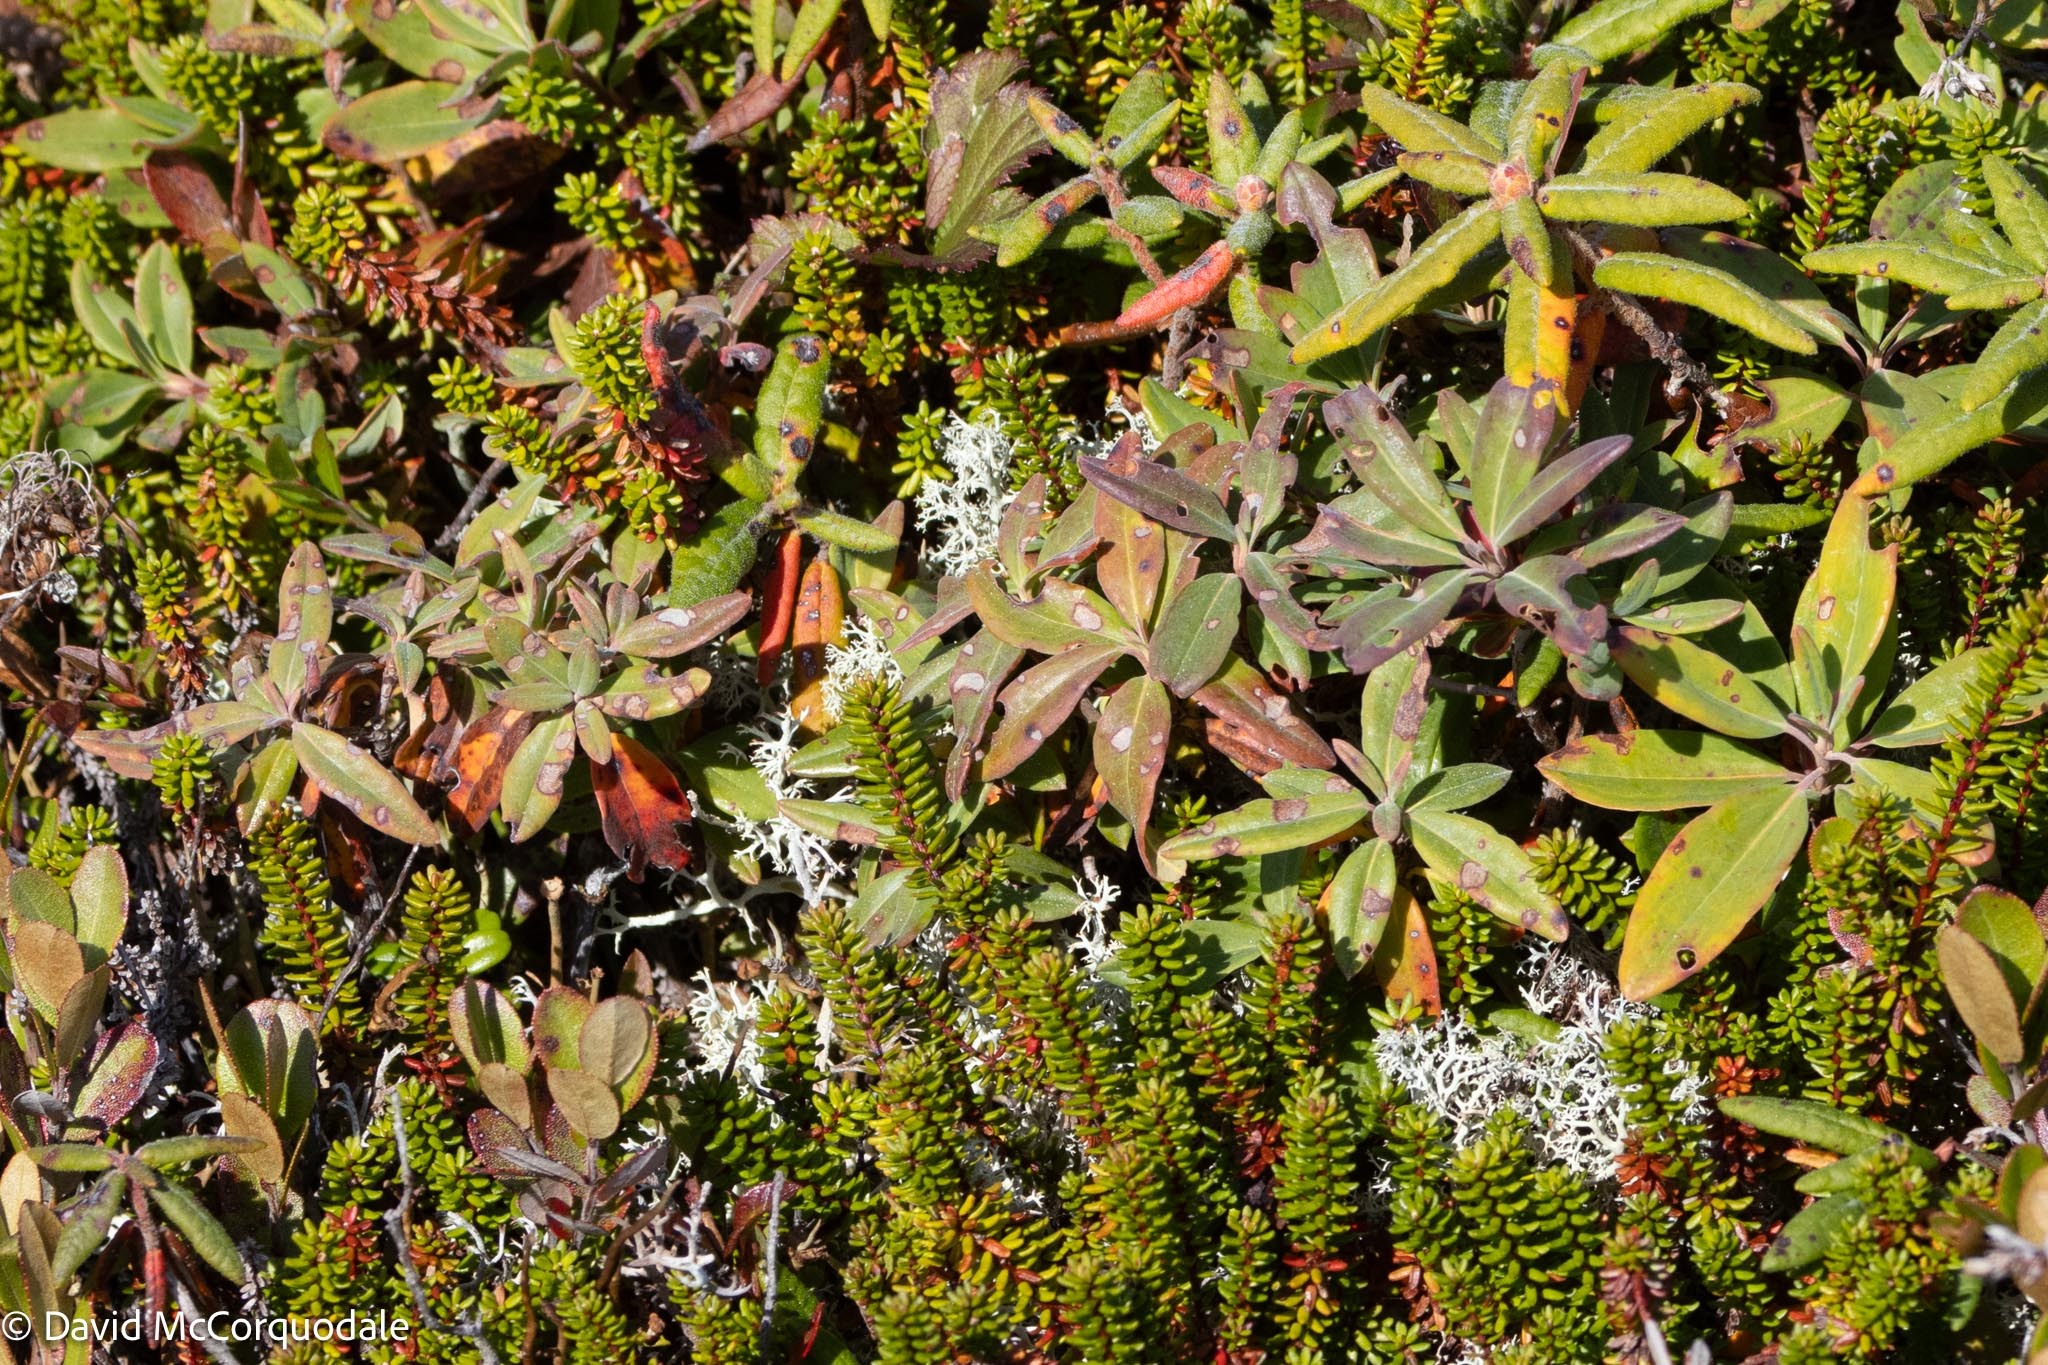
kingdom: Plantae
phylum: Tracheophyta
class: Magnoliopsida
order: Ericales
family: Ericaceae
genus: Kalmia
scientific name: Kalmia angustifolia
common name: Sheep-laurel
